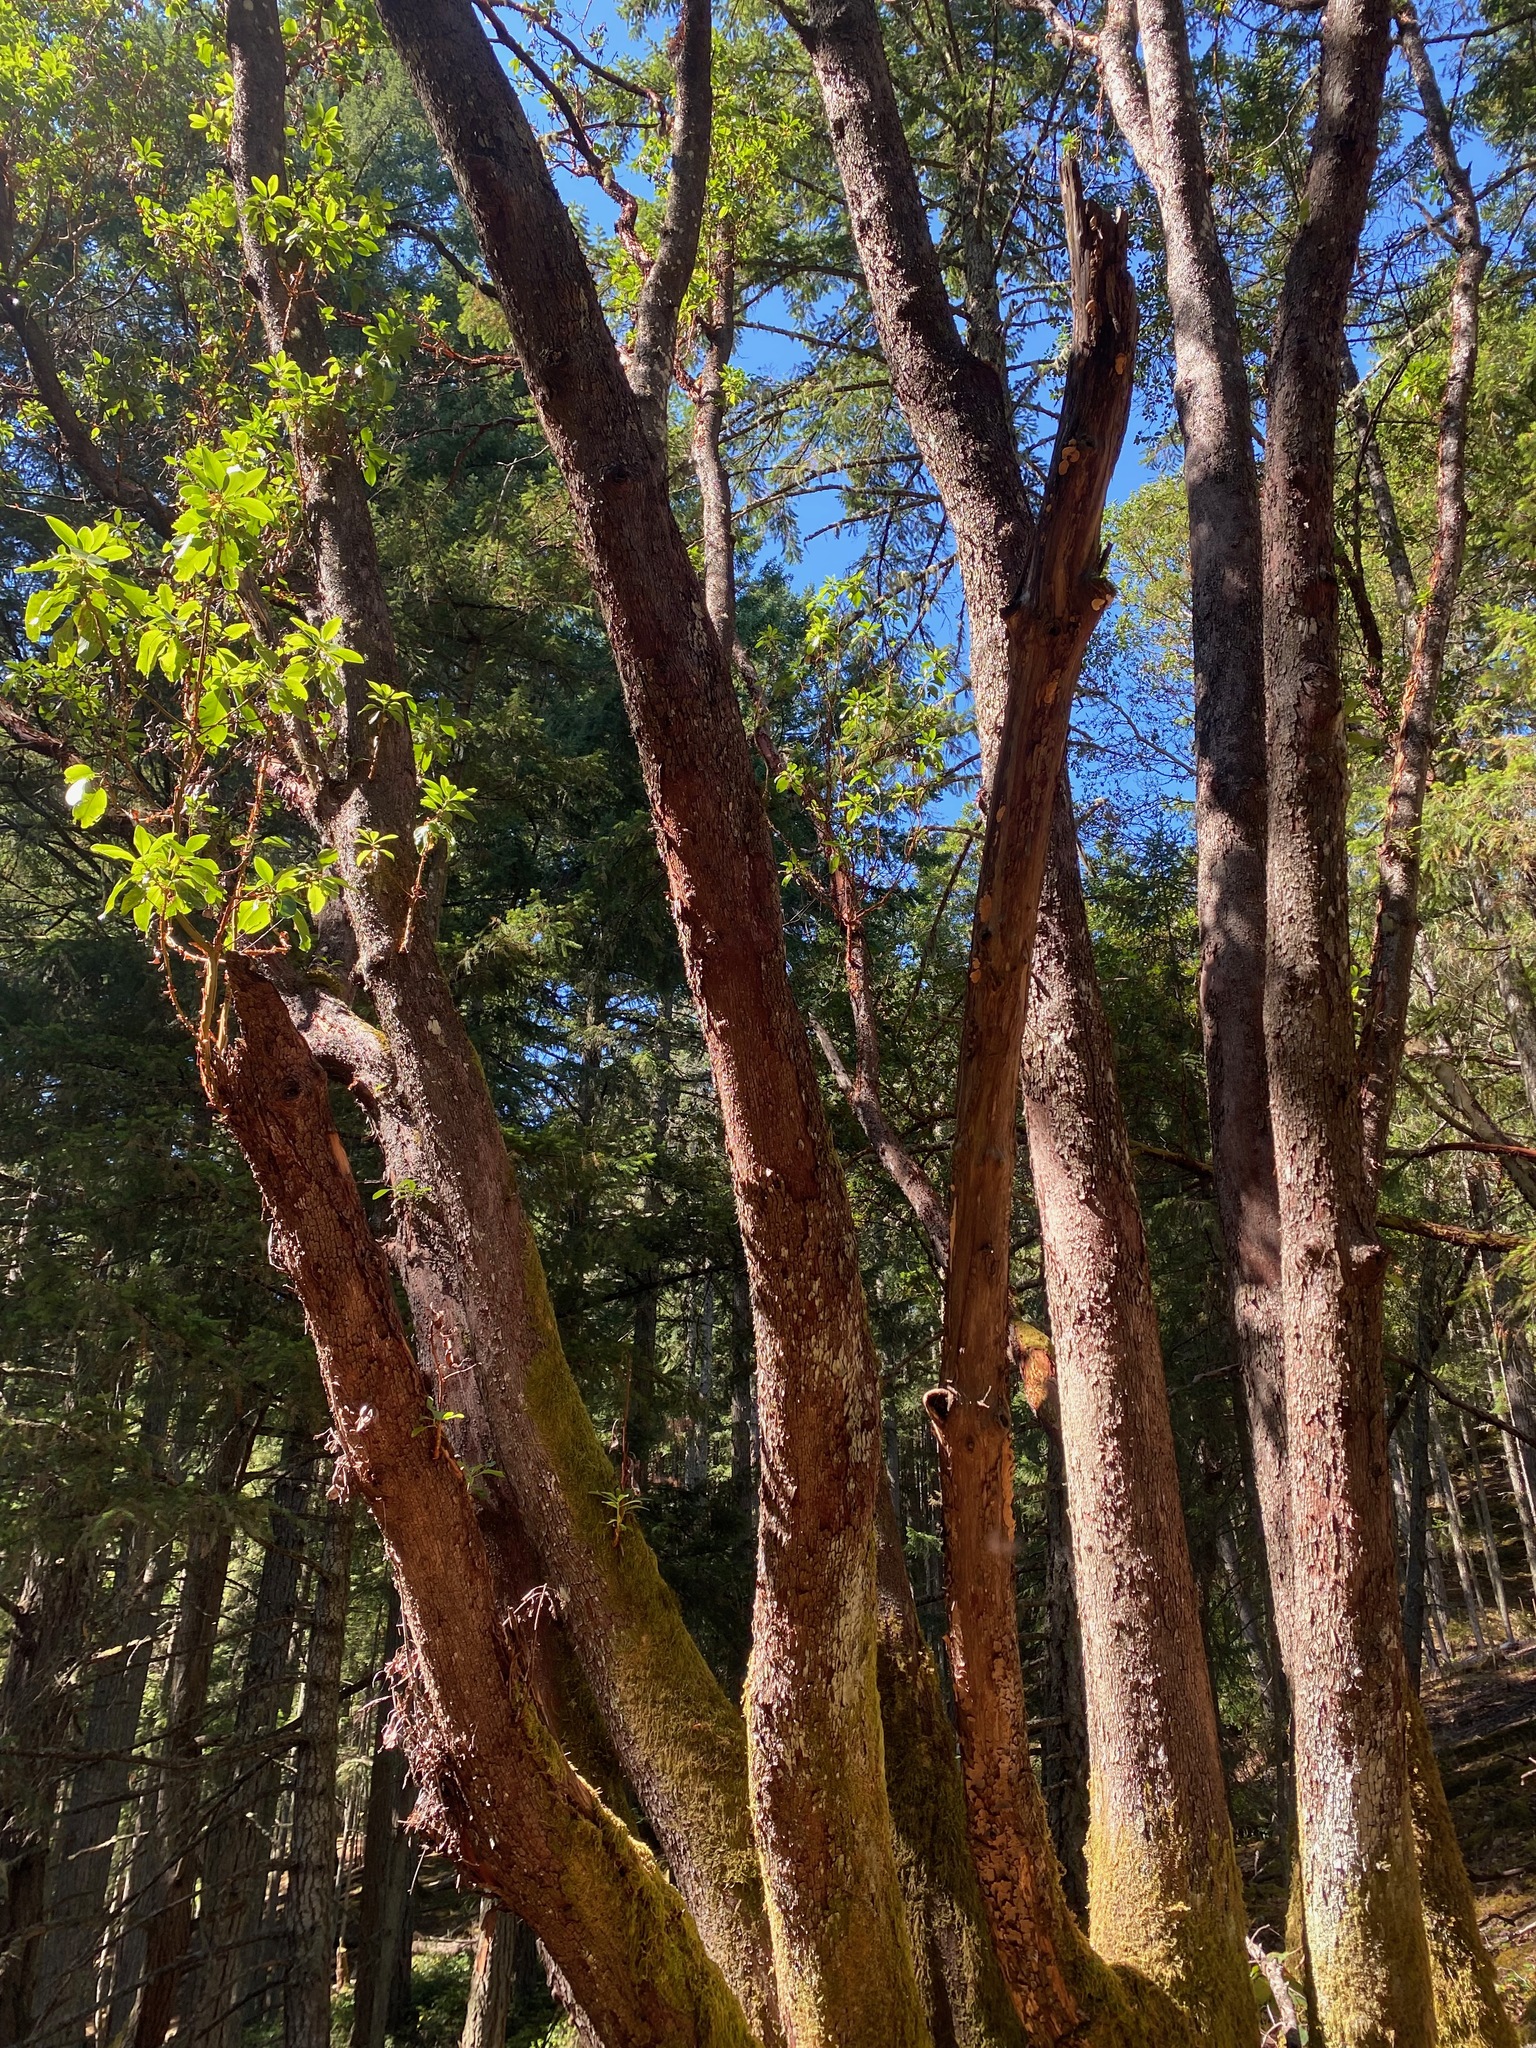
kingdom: Plantae
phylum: Tracheophyta
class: Magnoliopsida
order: Ericales
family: Ericaceae
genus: Arbutus
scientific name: Arbutus menziesii
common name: Pacific madrone
